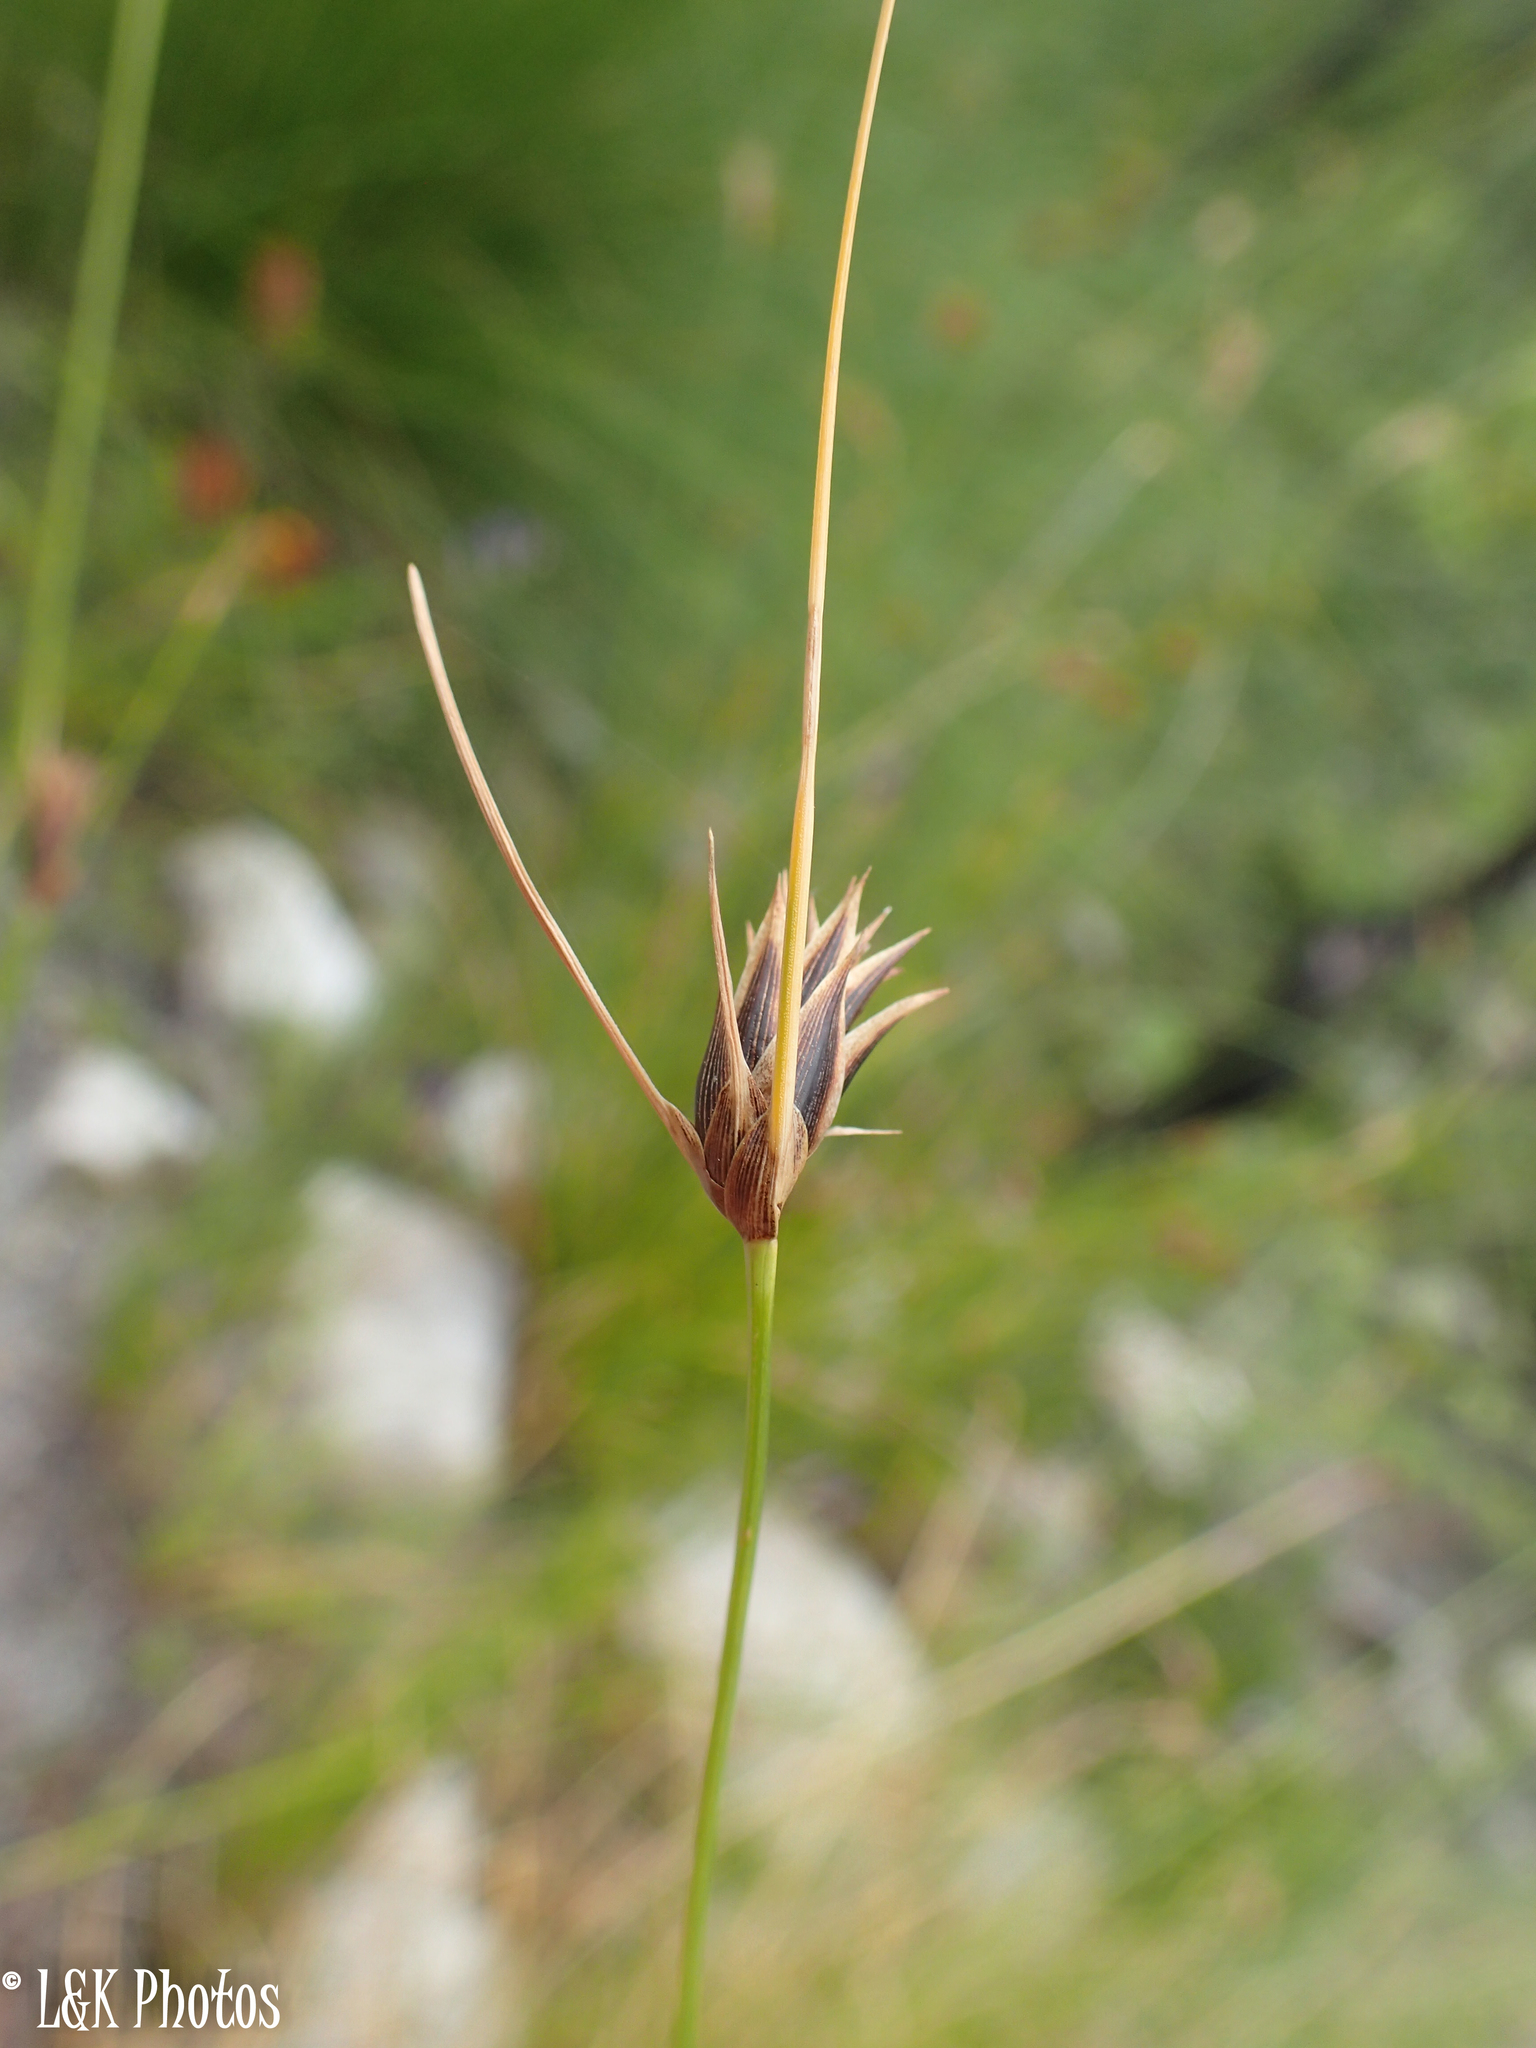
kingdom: Plantae
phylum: Tracheophyta
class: Liliopsida
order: Poales
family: Cyperaceae
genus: Ficinia
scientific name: Ficinia nigrescens
